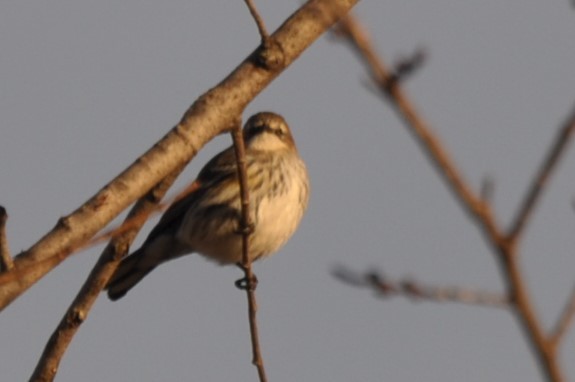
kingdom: Animalia
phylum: Chordata
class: Aves
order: Passeriformes
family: Parulidae
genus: Setophaga
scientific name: Setophaga coronata
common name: Myrtle warbler
